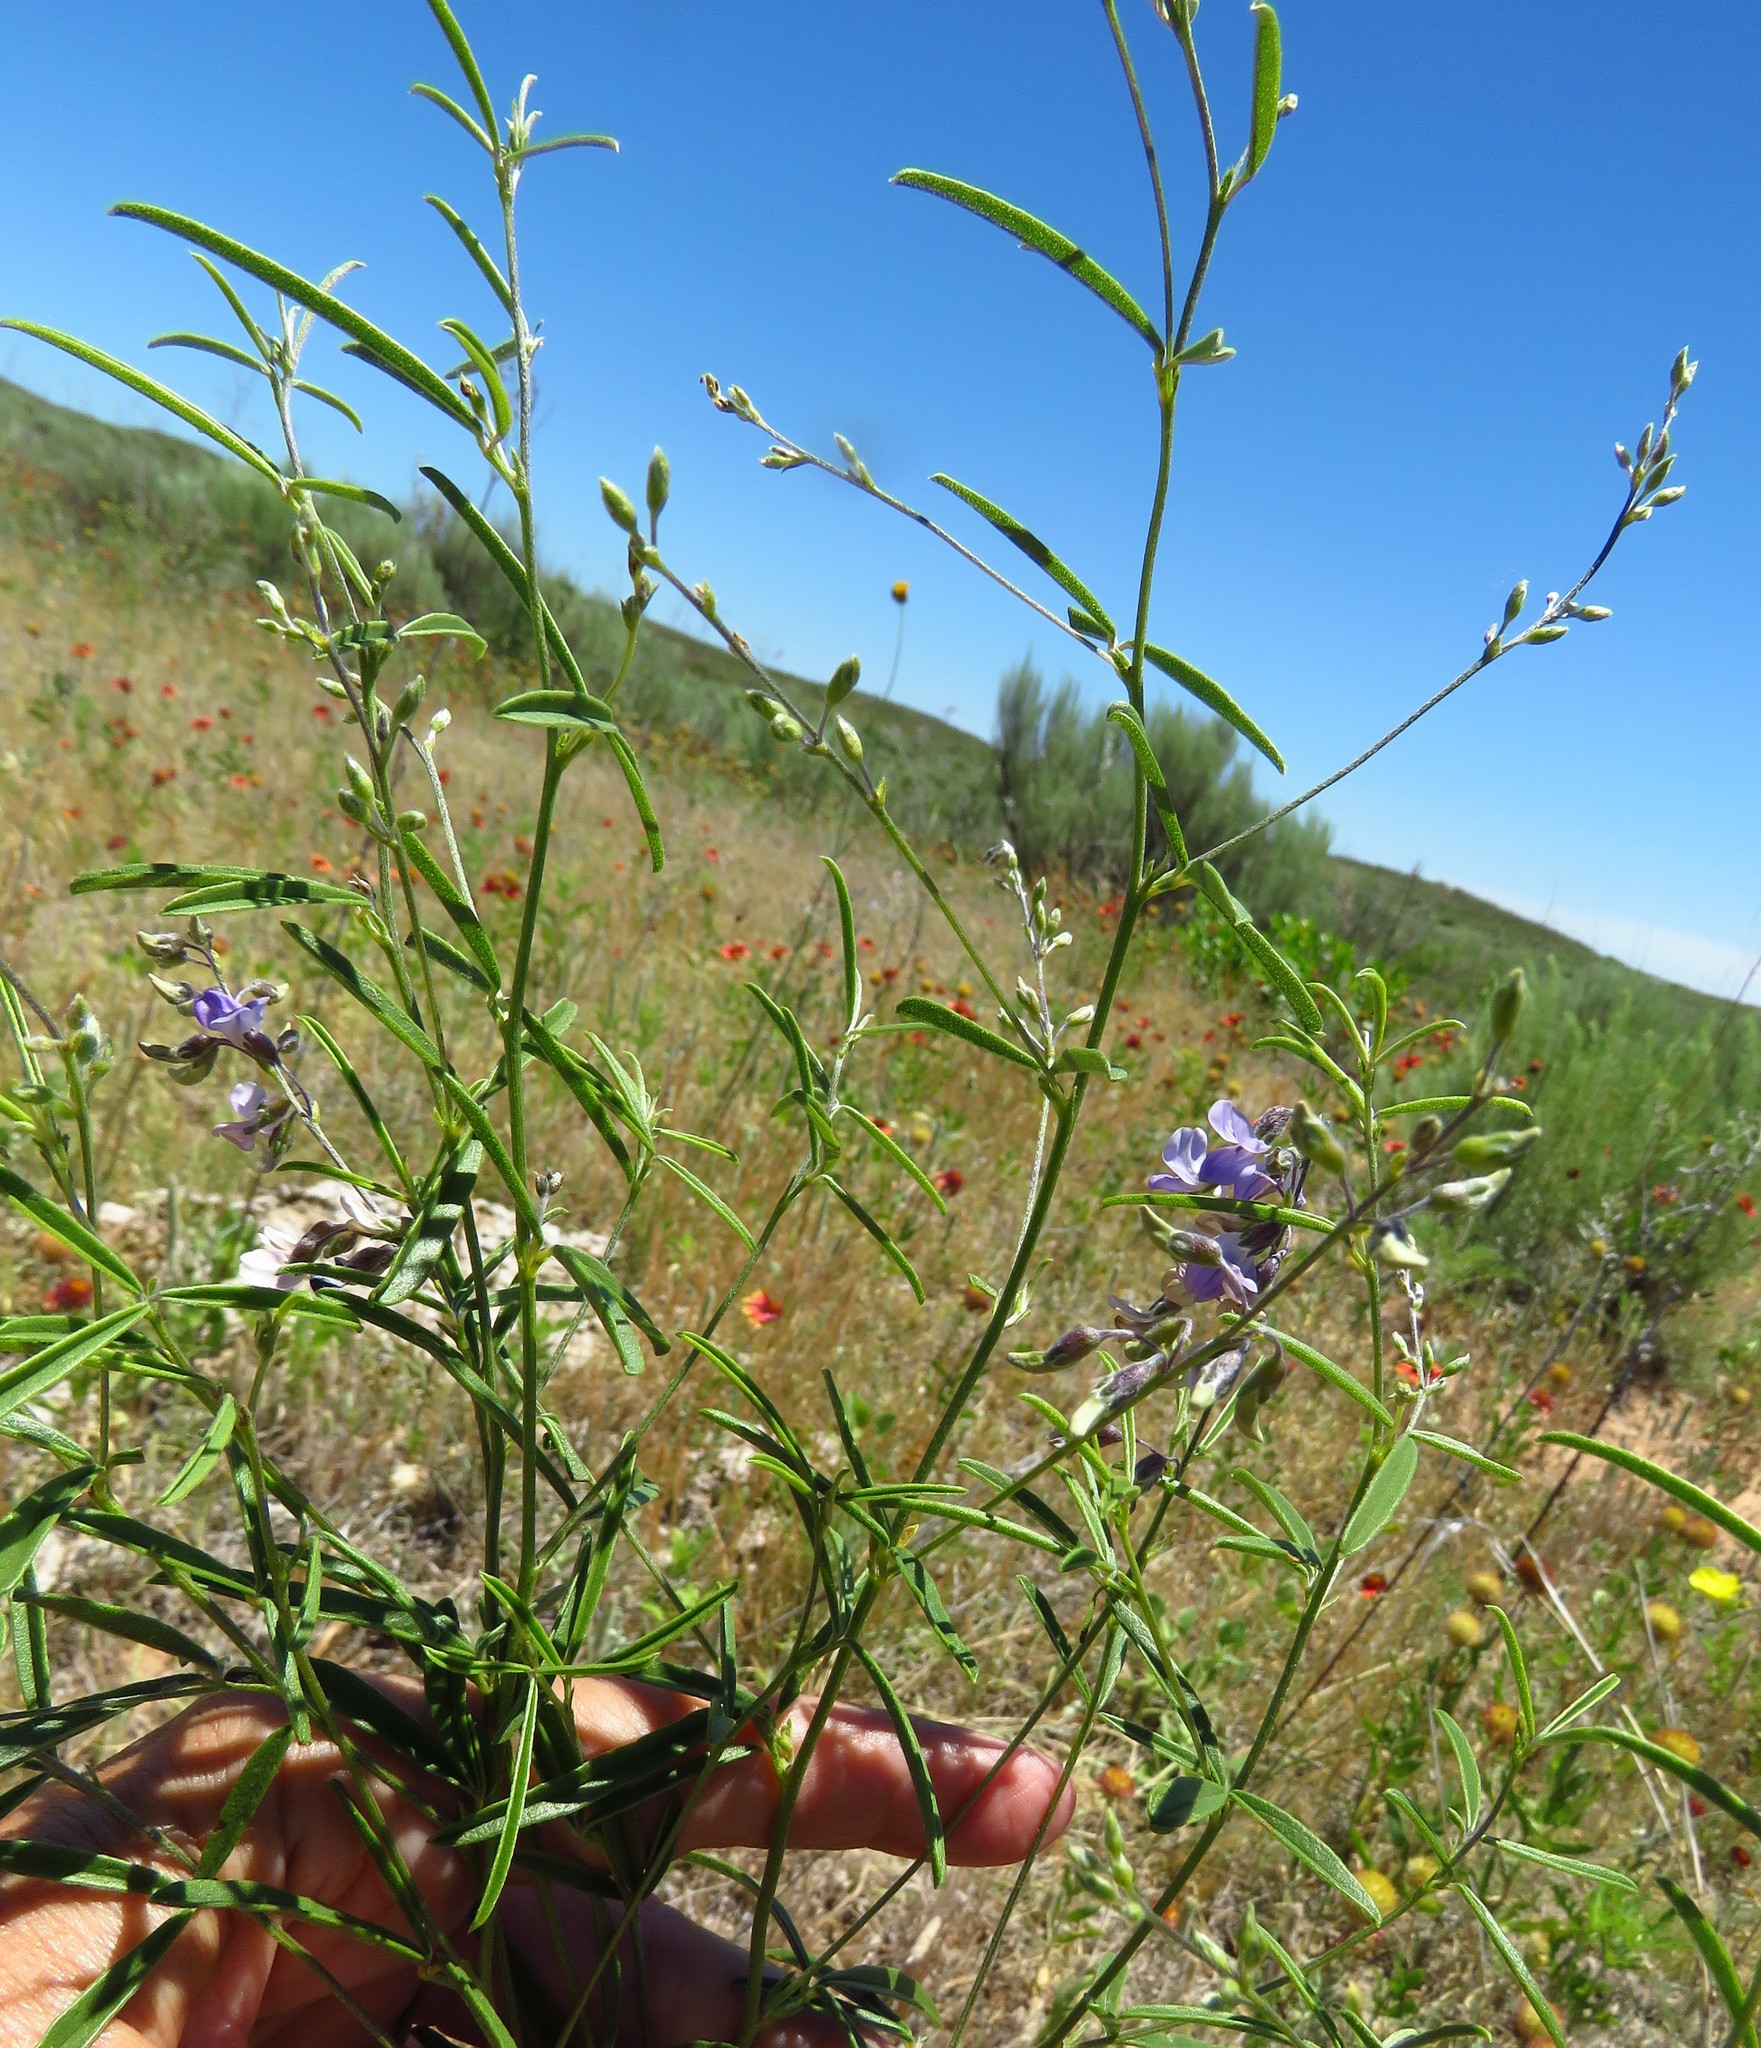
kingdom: Plantae
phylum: Tracheophyta
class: Magnoliopsida
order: Fabales
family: Fabaceae
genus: Pediomelum
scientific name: Pediomelum linearifolium
